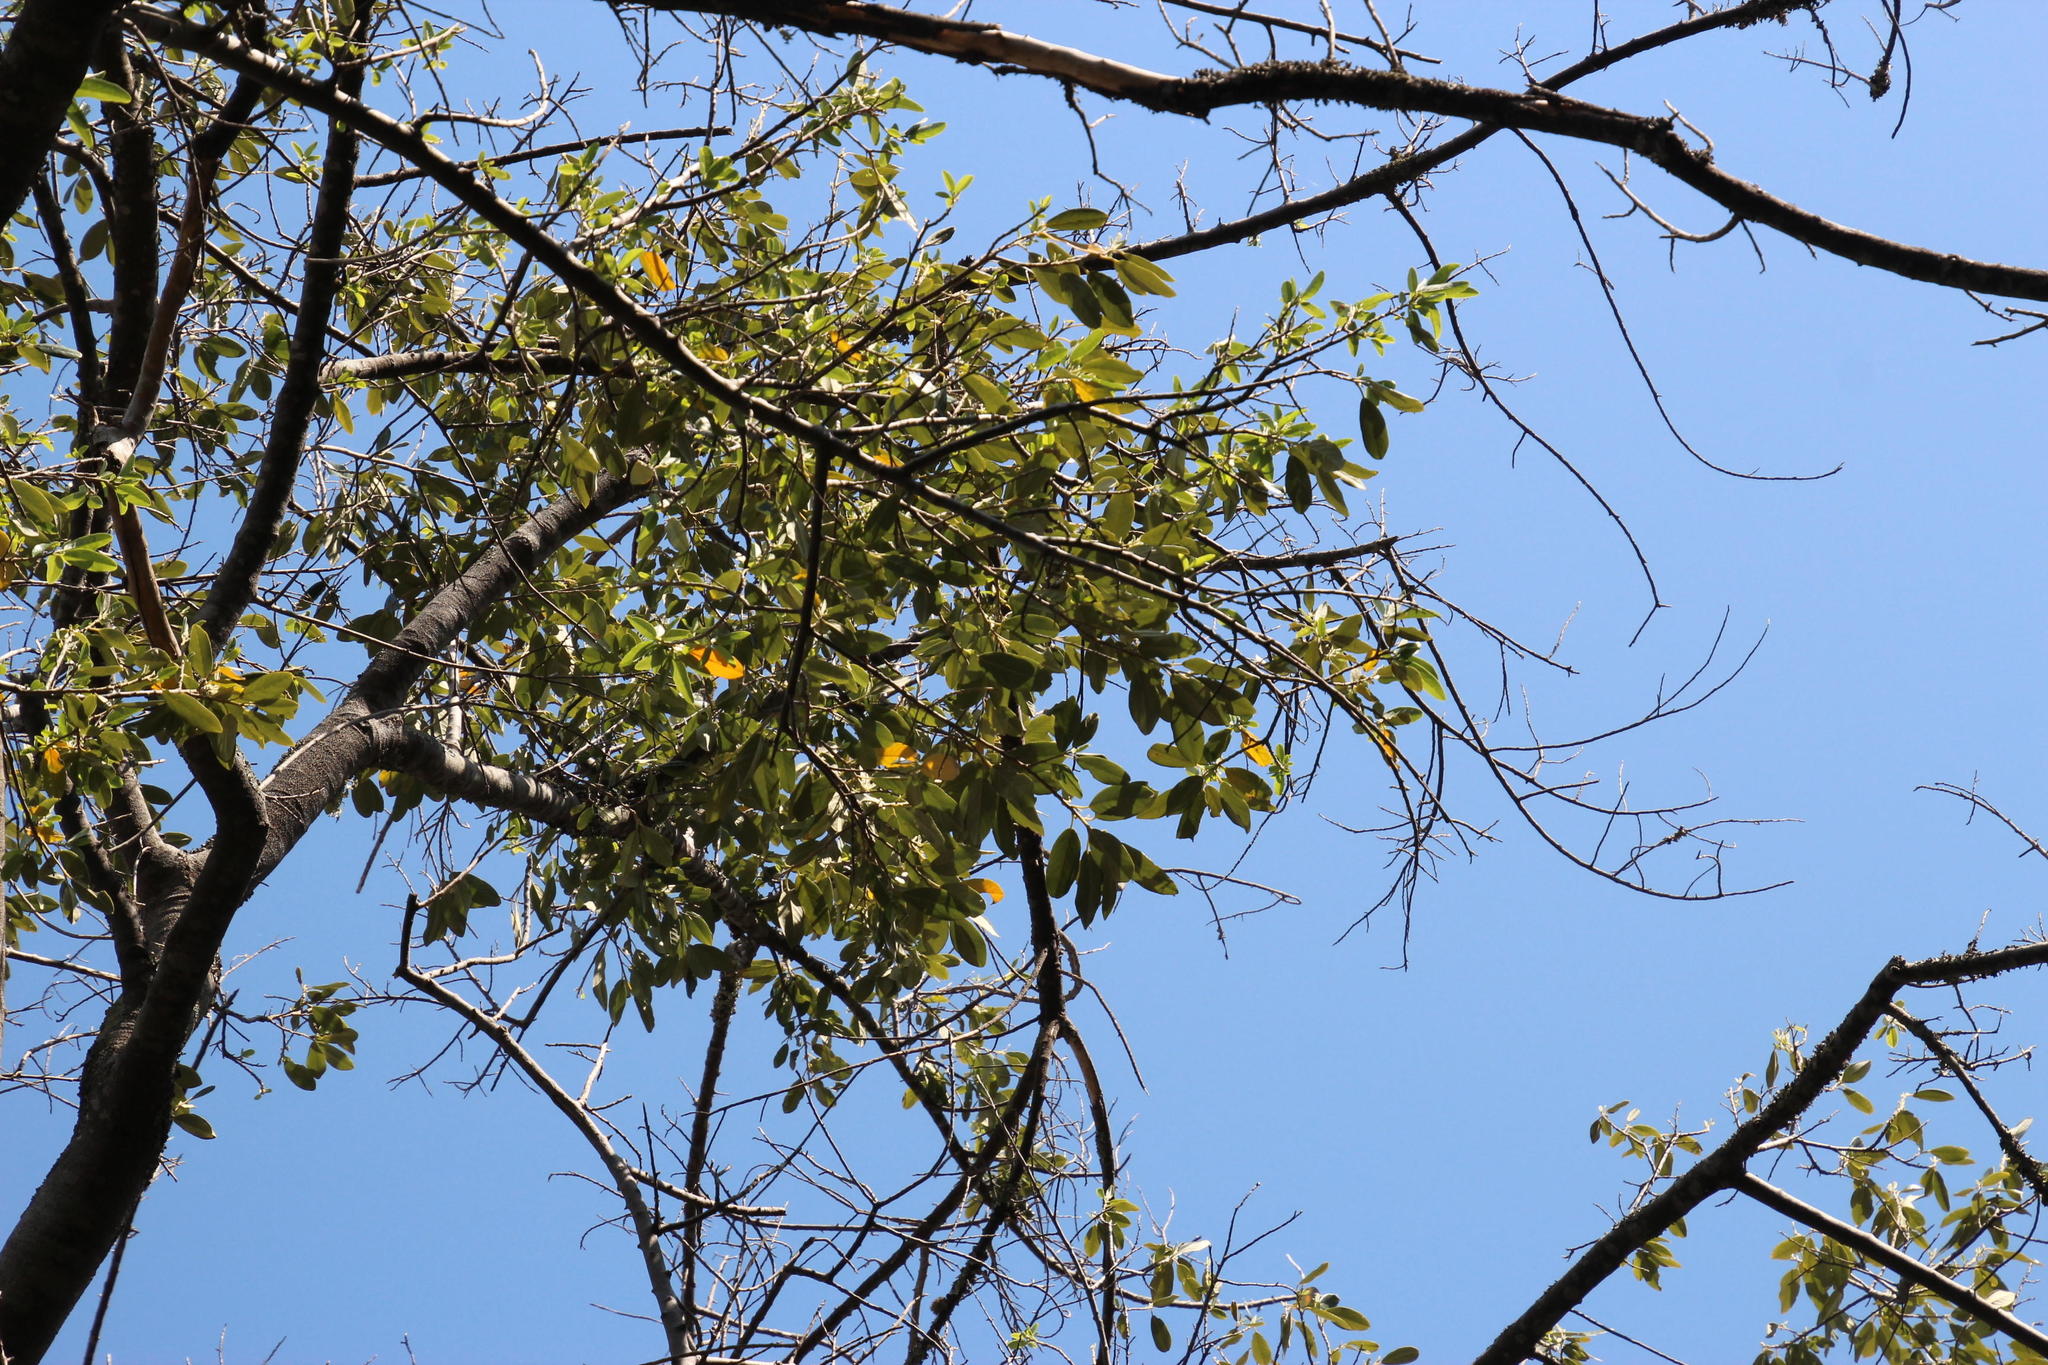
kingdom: Plantae
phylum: Tracheophyta
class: Magnoliopsida
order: Malpighiales
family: Achariaceae
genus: Kiggelaria
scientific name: Kiggelaria africana
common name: Wild peach
